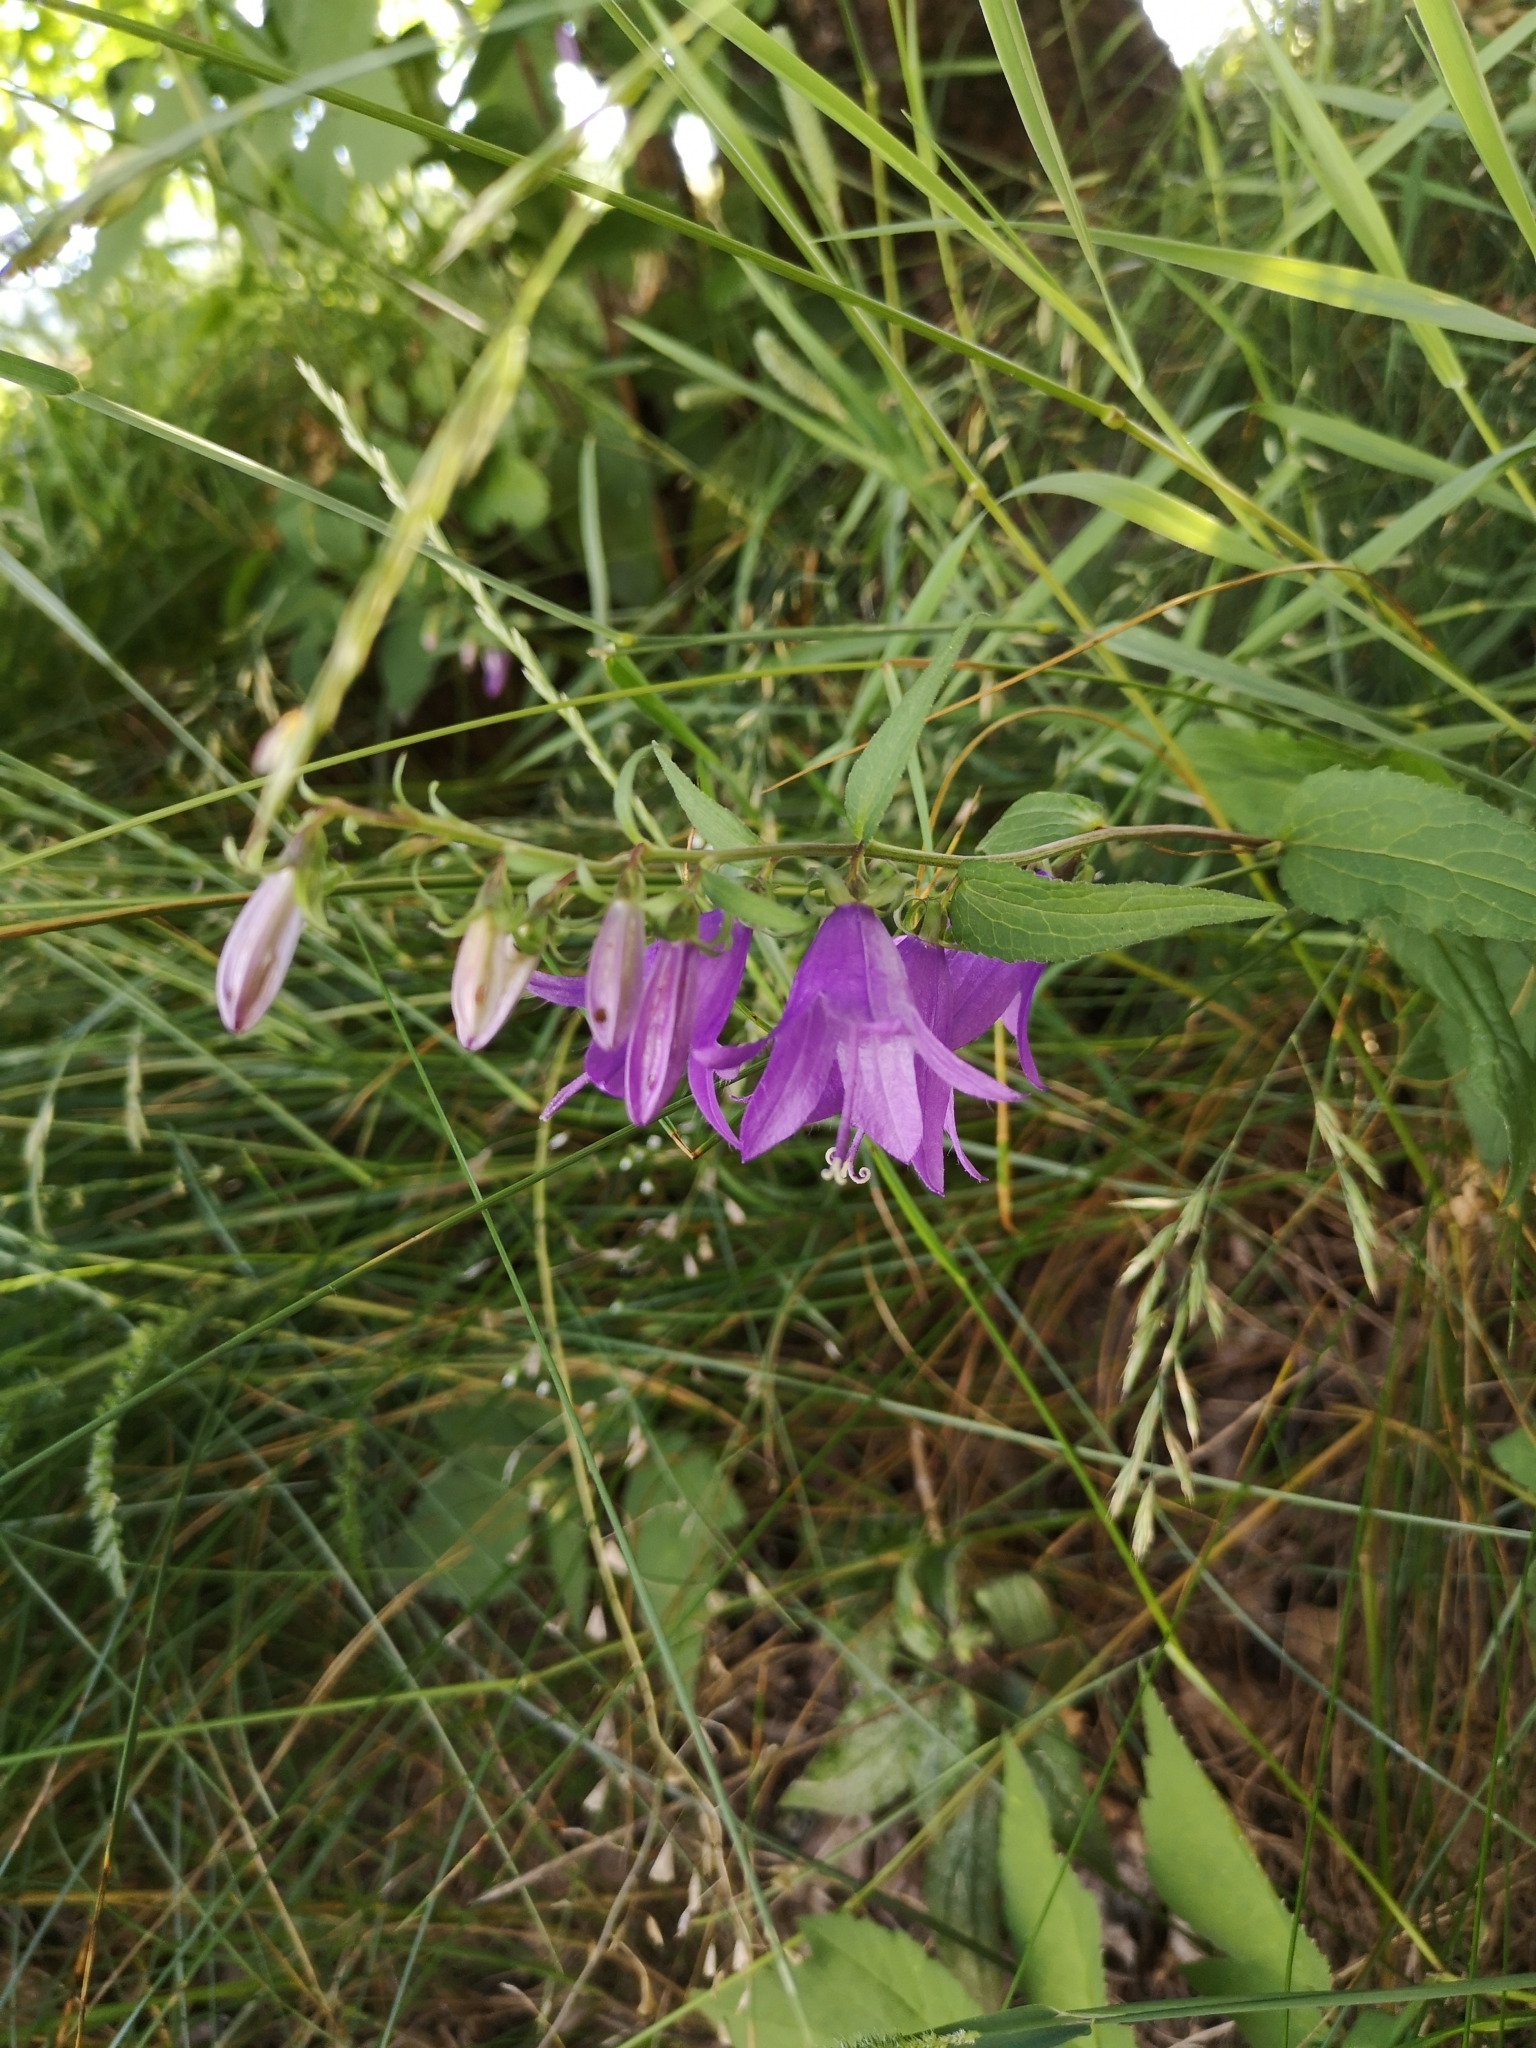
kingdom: Plantae
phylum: Tracheophyta
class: Magnoliopsida
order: Asterales
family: Campanulaceae
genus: Campanula
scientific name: Campanula rapunculoides
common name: Creeping bellflower
